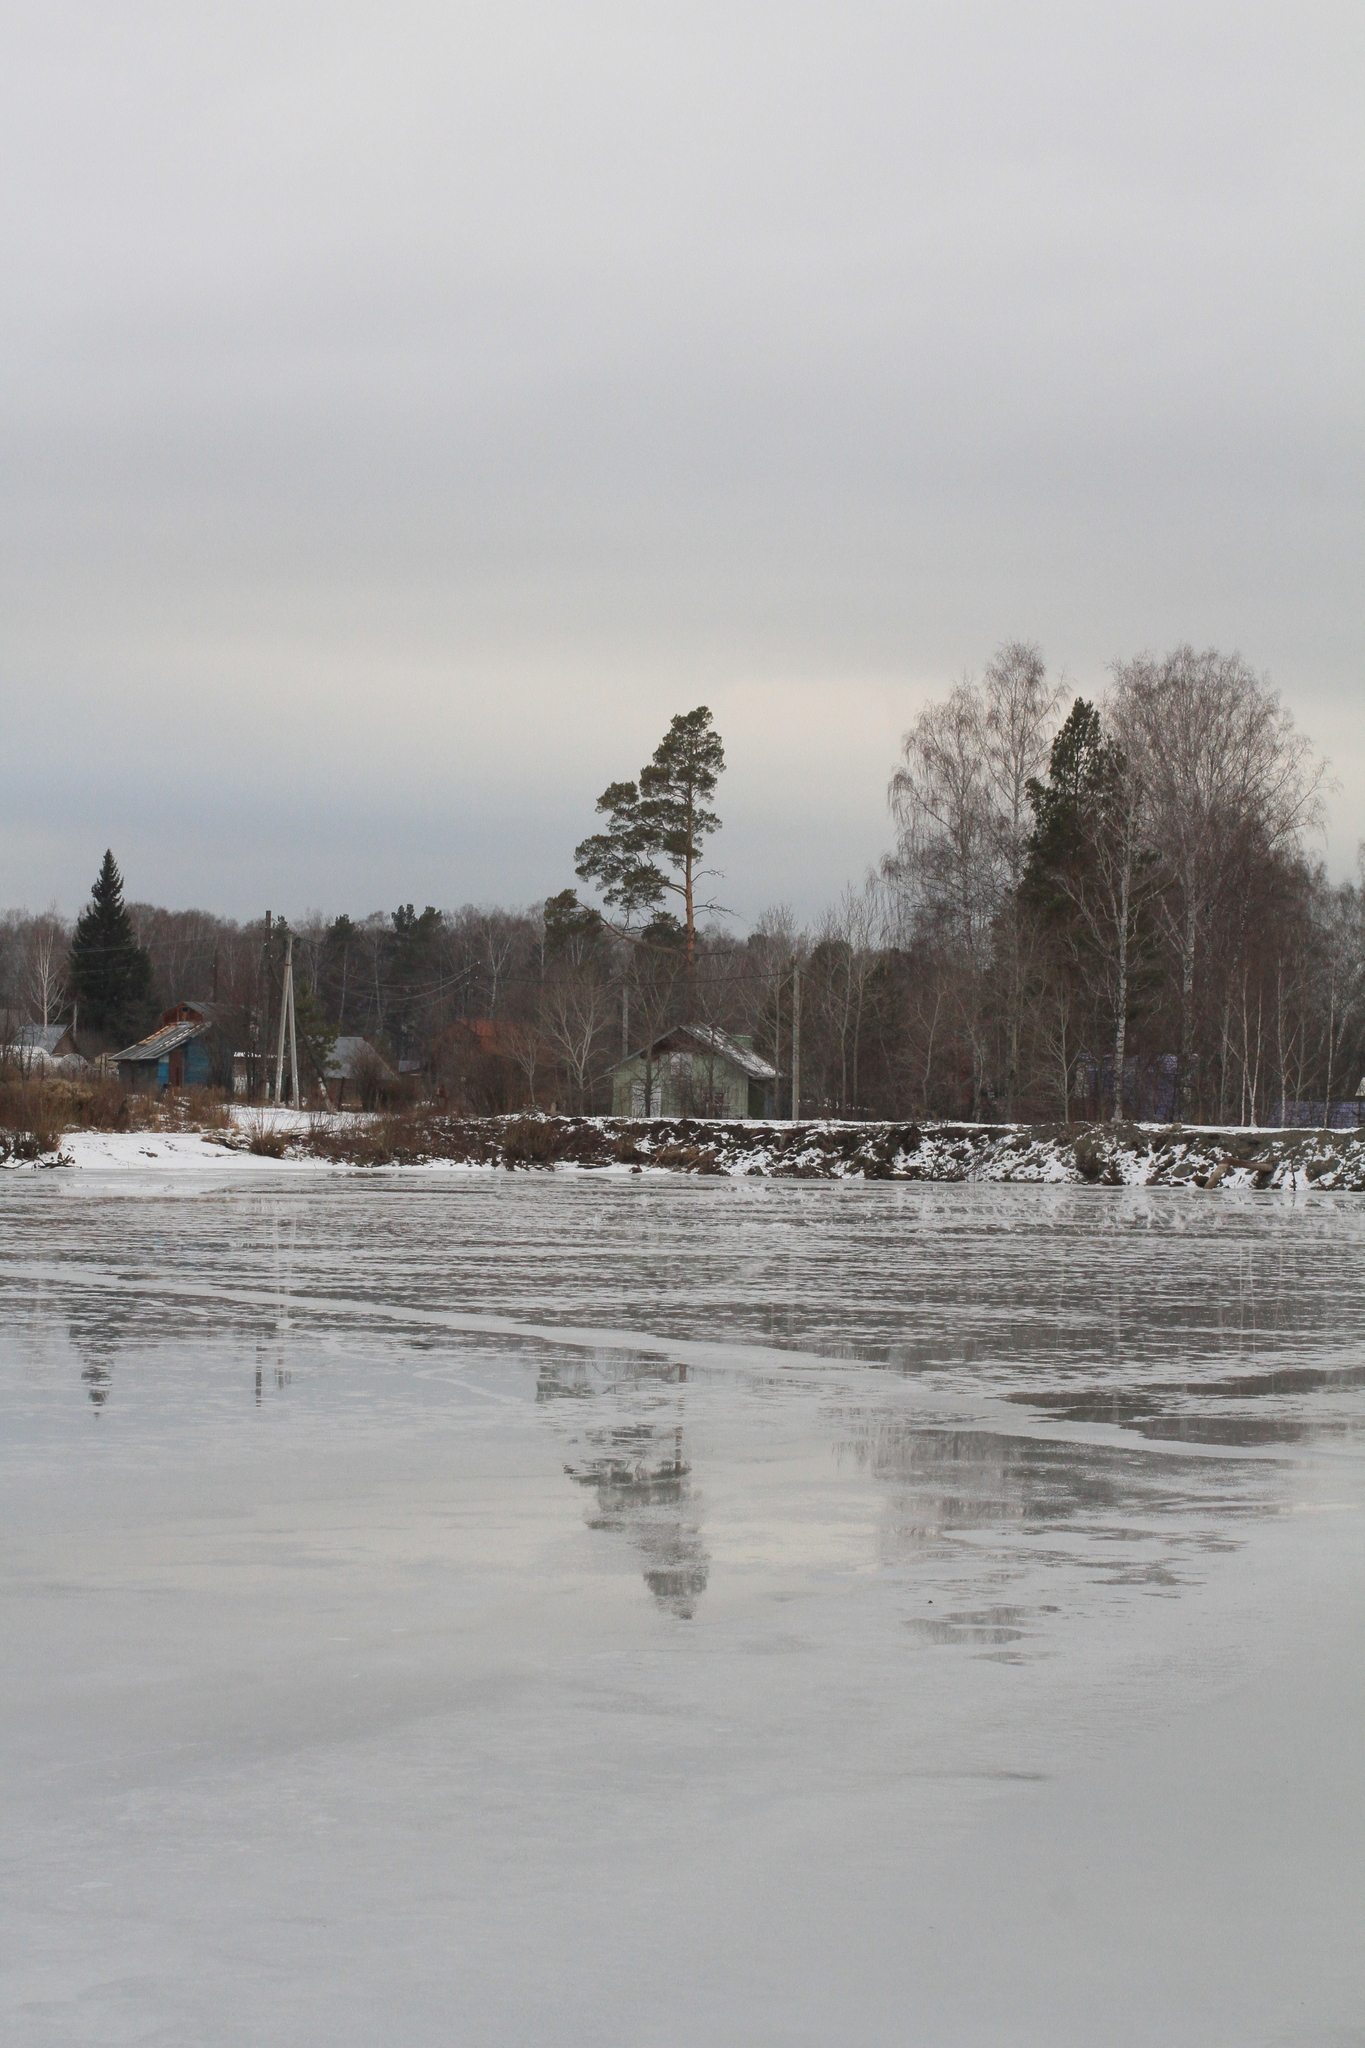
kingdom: Plantae
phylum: Tracheophyta
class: Pinopsida
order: Pinales
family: Pinaceae
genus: Pinus
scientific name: Pinus sylvestris
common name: Scots pine
